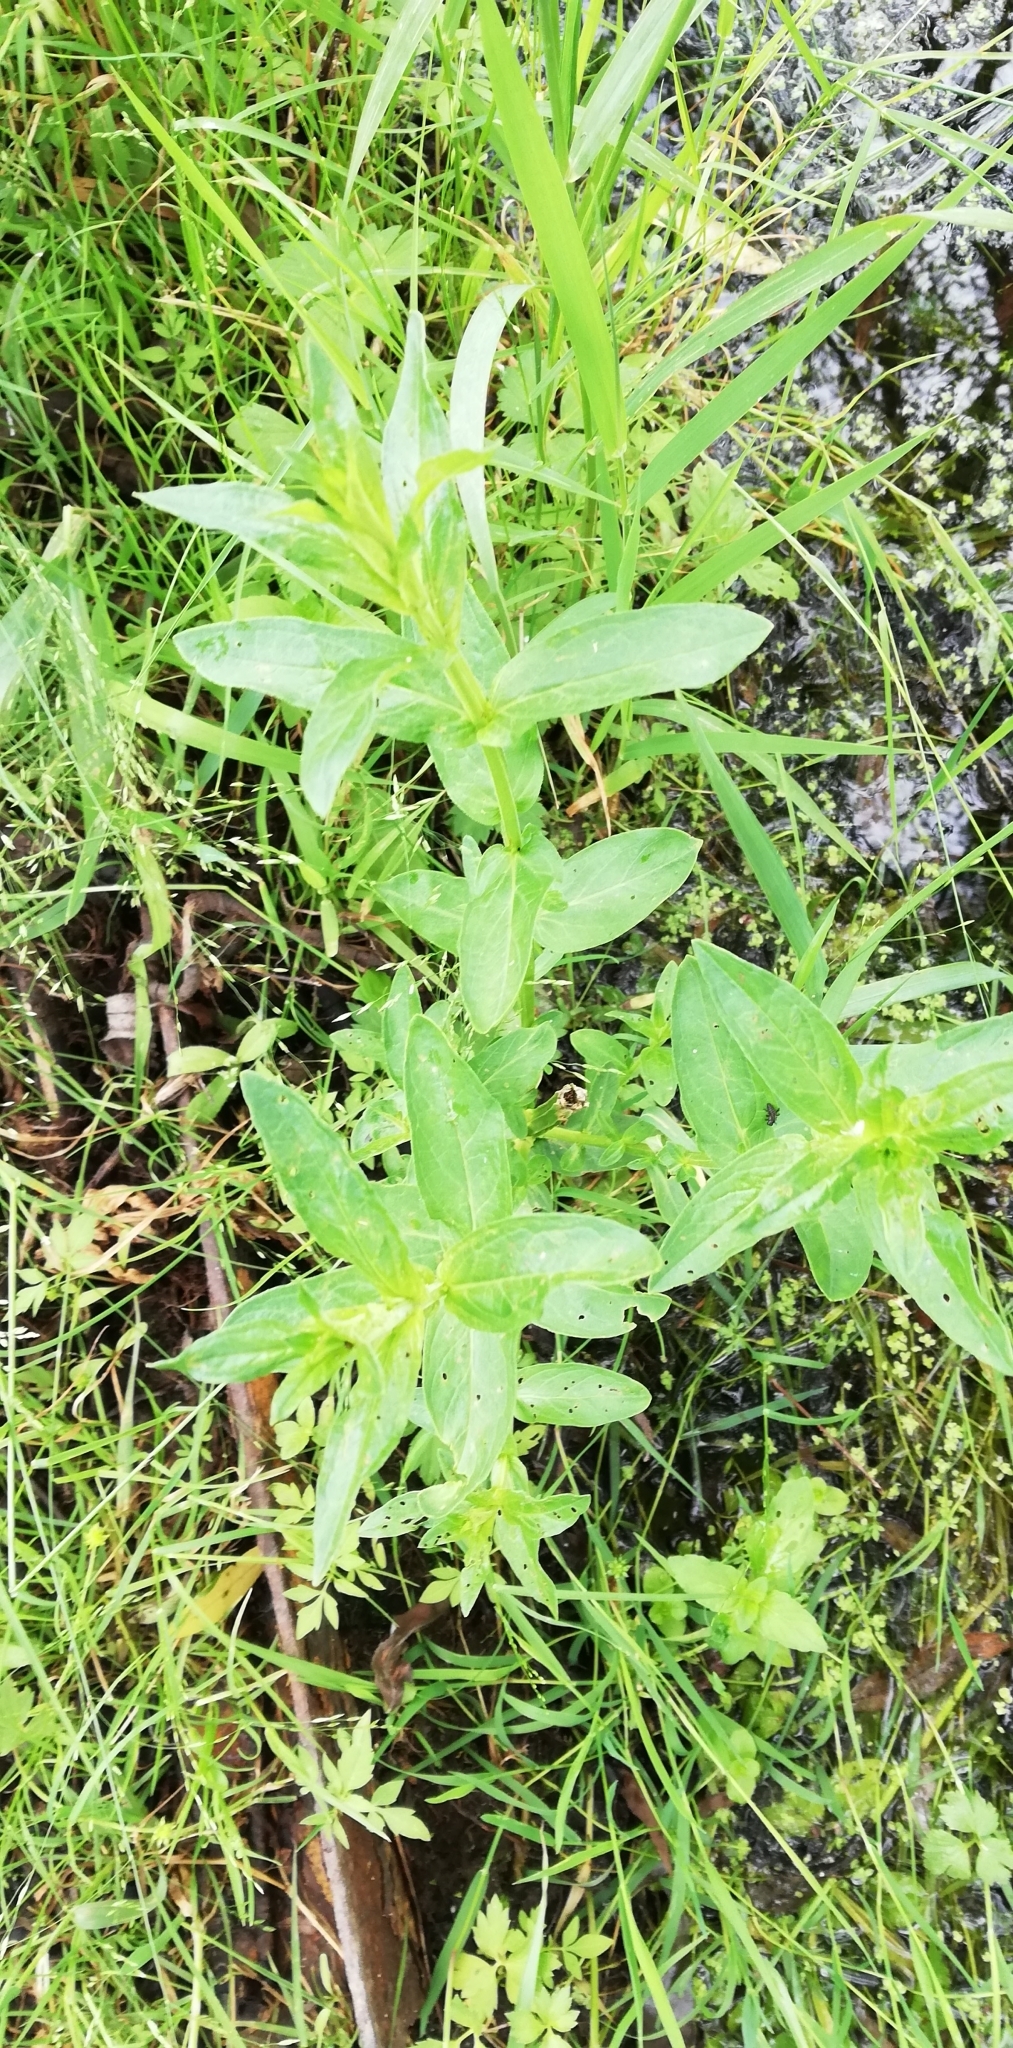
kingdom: Plantae
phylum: Tracheophyta
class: Magnoliopsida
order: Myrtales
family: Lythraceae
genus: Lythrum
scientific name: Lythrum salicaria
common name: Purple loosestrife
